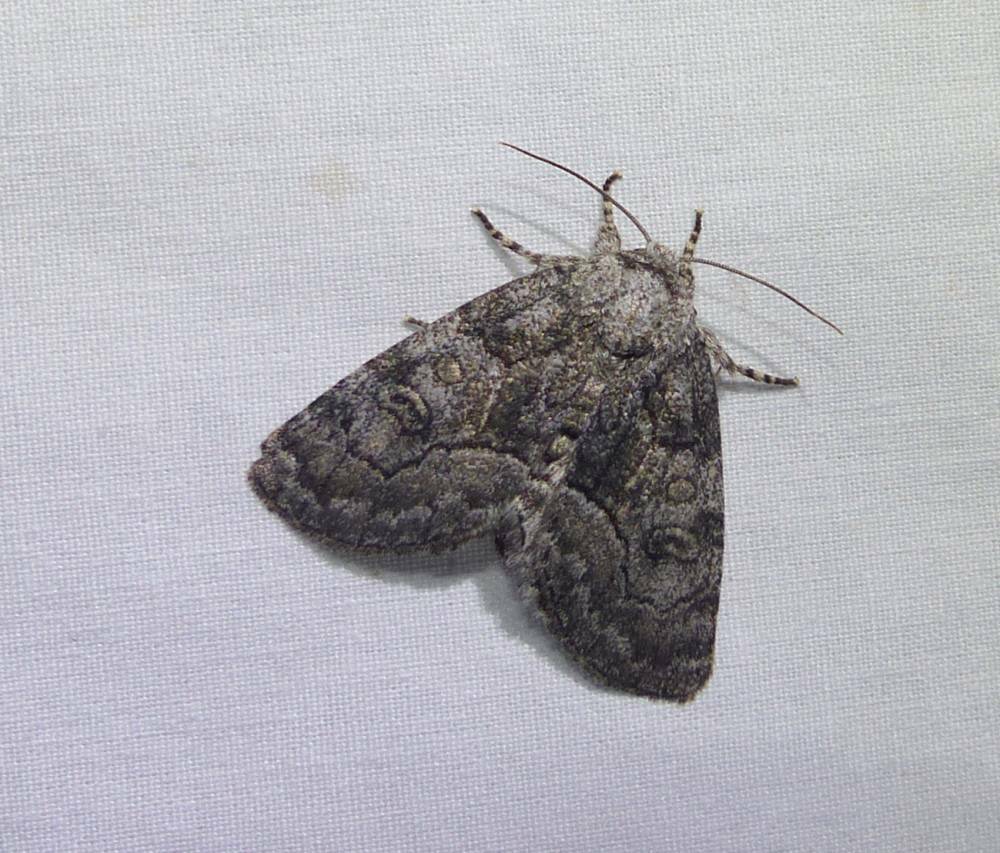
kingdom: Animalia
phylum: Arthropoda
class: Insecta
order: Lepidoptera
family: Noctuidae
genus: Raphia
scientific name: Raphia frater
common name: Brother
